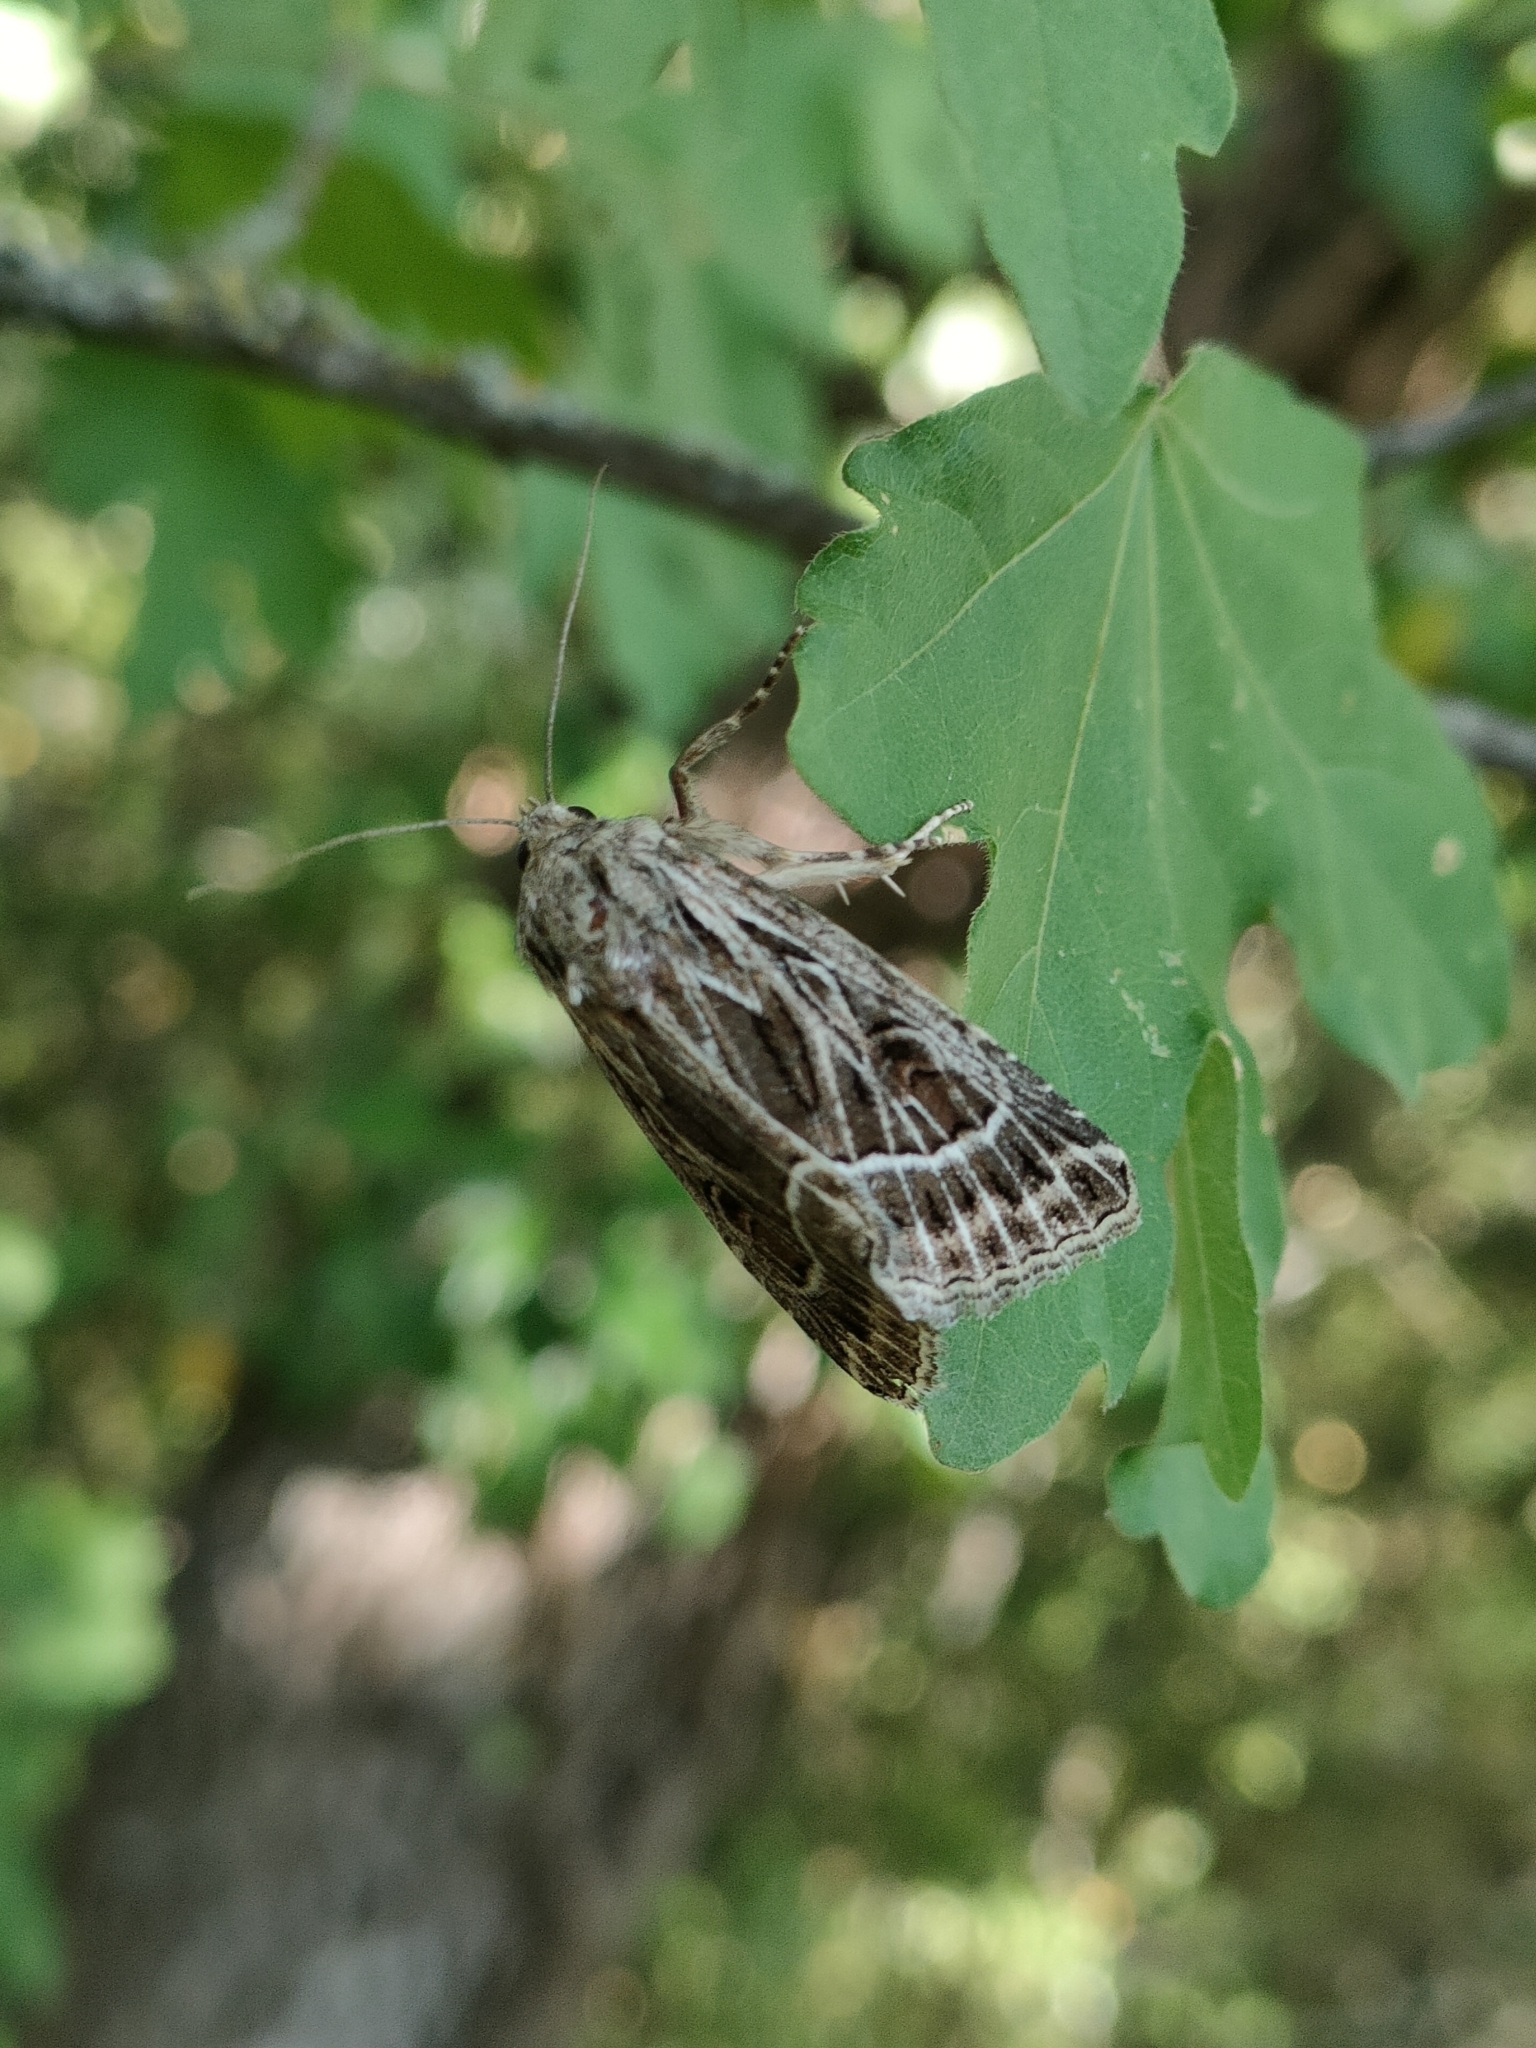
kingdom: Animalia
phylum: Arthropoda
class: Insecta
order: Lepidoptera
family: Noctuidae
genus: Thalpophila
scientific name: Thalpophila vitalba
